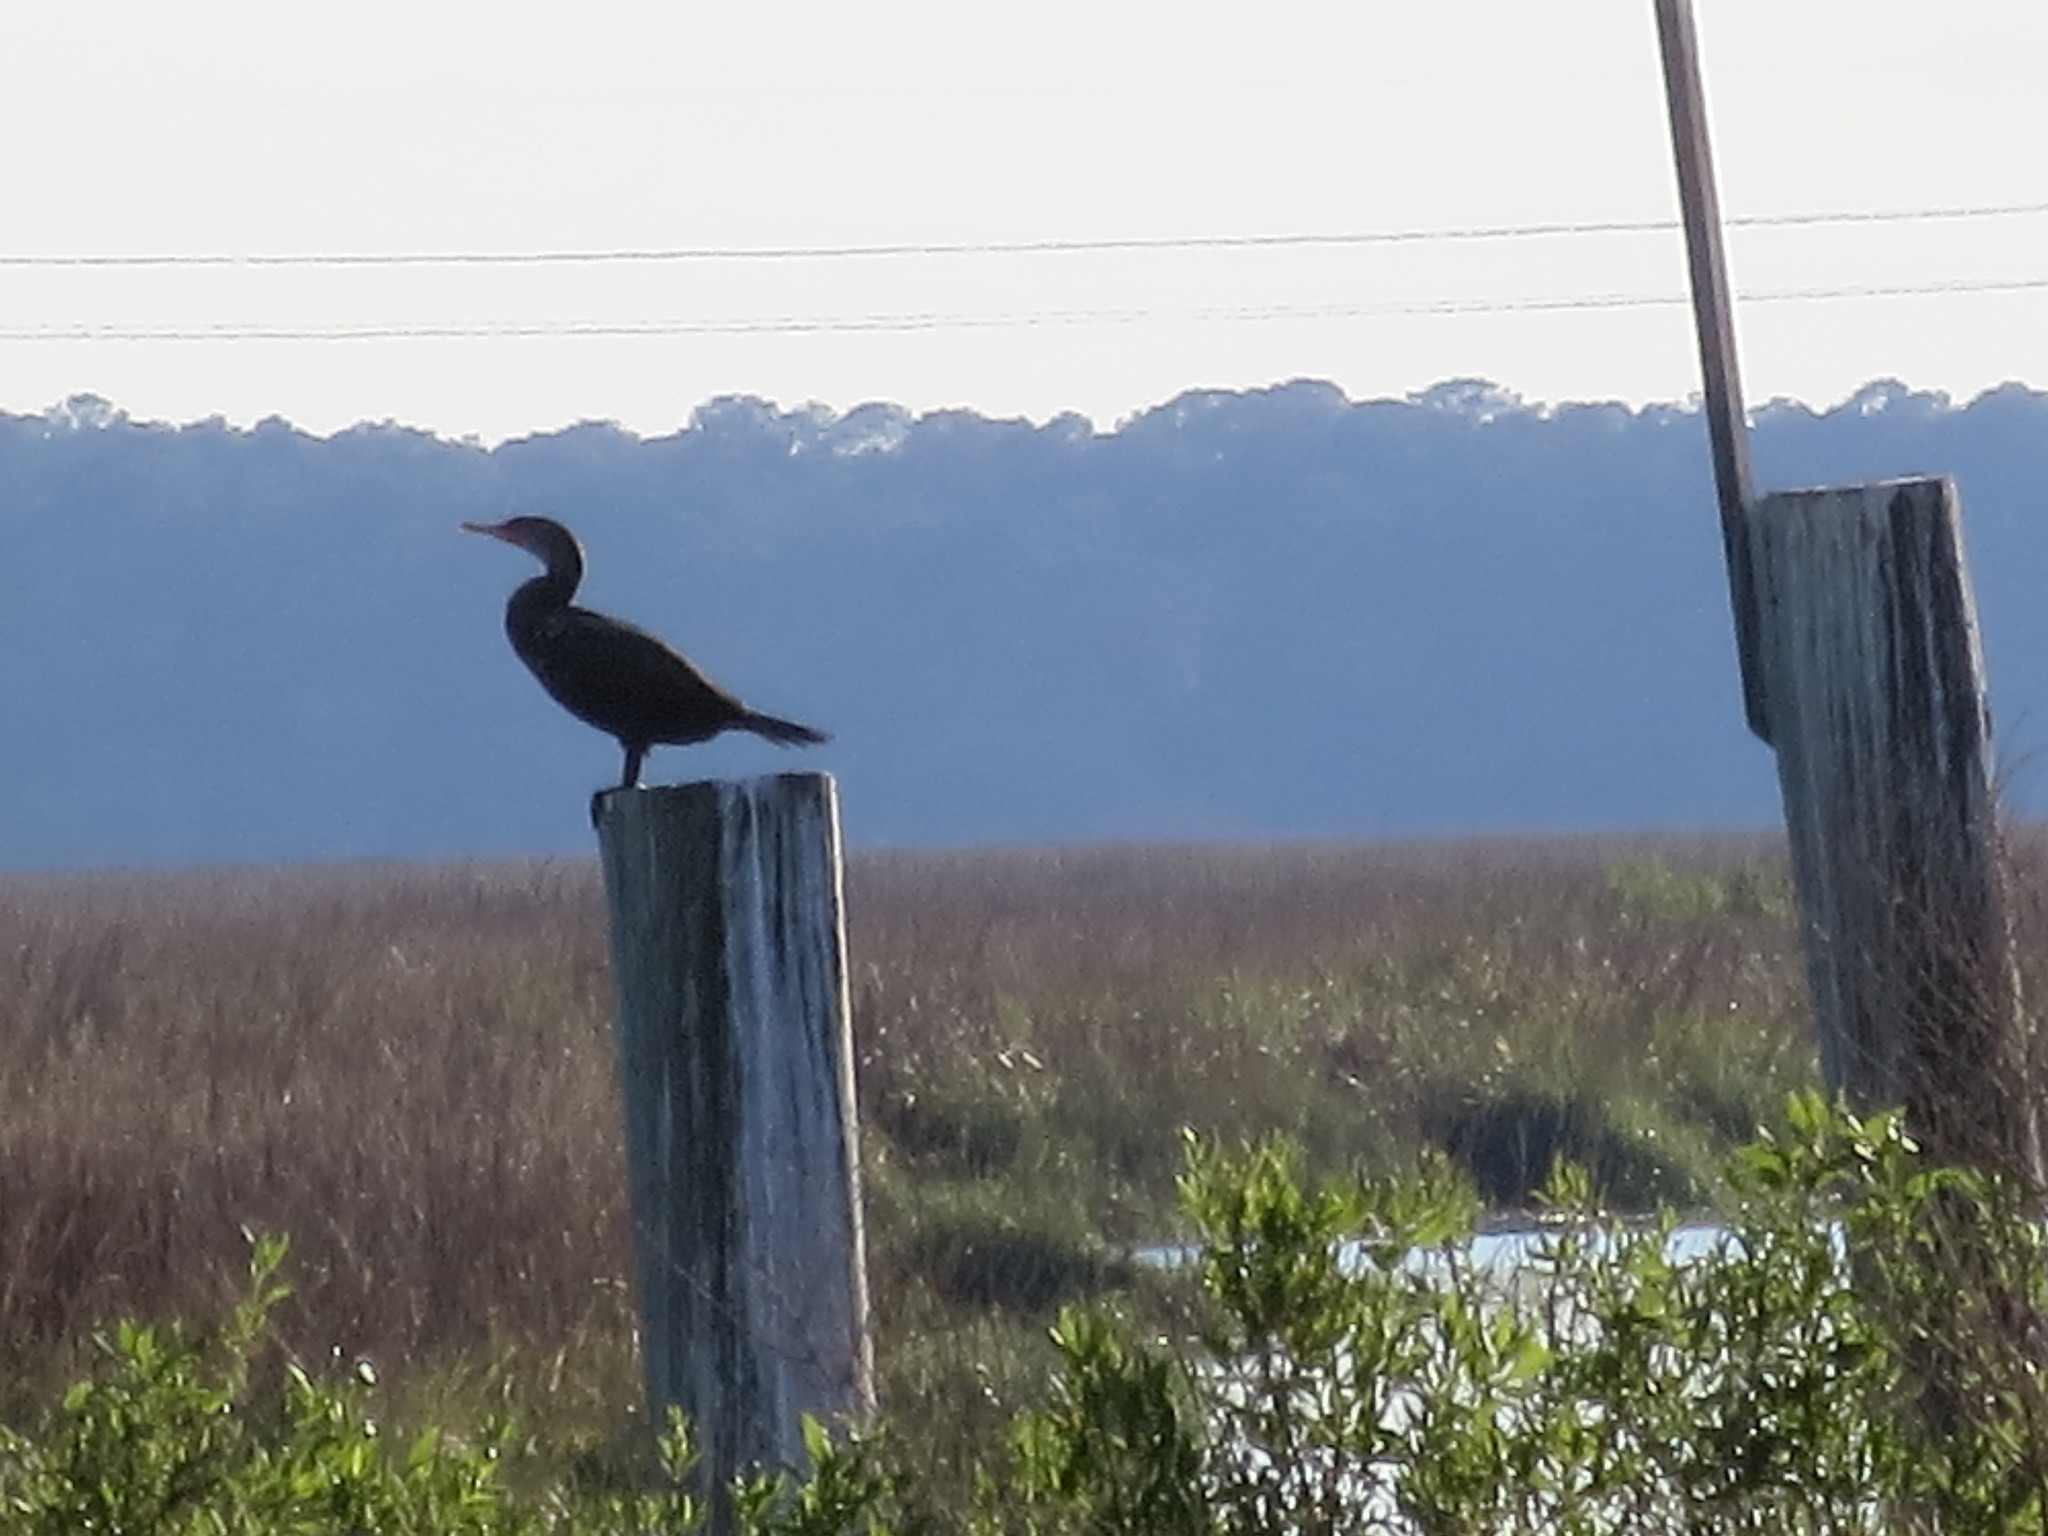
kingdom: Animalia
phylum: Chordata
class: Aves
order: Suliformes
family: Phalacrocoracidae
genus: Phalacrocorax
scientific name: Phalacrocorax auritus
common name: Double-crested cormorant
